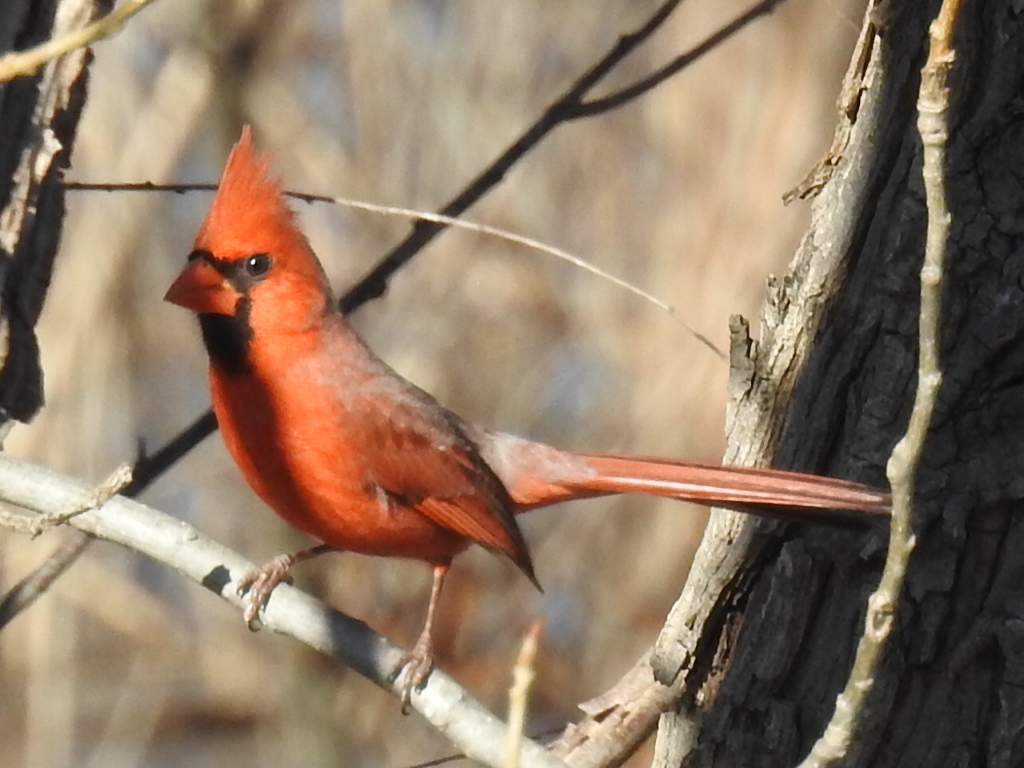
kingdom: Animalia
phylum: Chordata
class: Aves
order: Passeriformes
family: Cardinalidae
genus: Cardinalis
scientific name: Cardinalis cardinalis
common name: Northern cardinal
